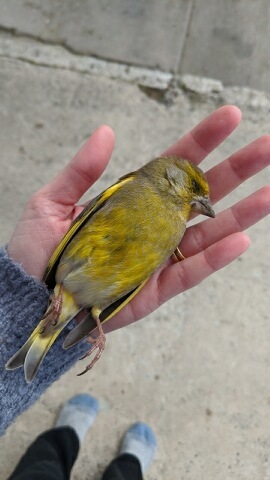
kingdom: Plantae
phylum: Tracheophyta
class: Liliopsida
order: Poales
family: Poaceae
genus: Chloris
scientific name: Chloris chloris
